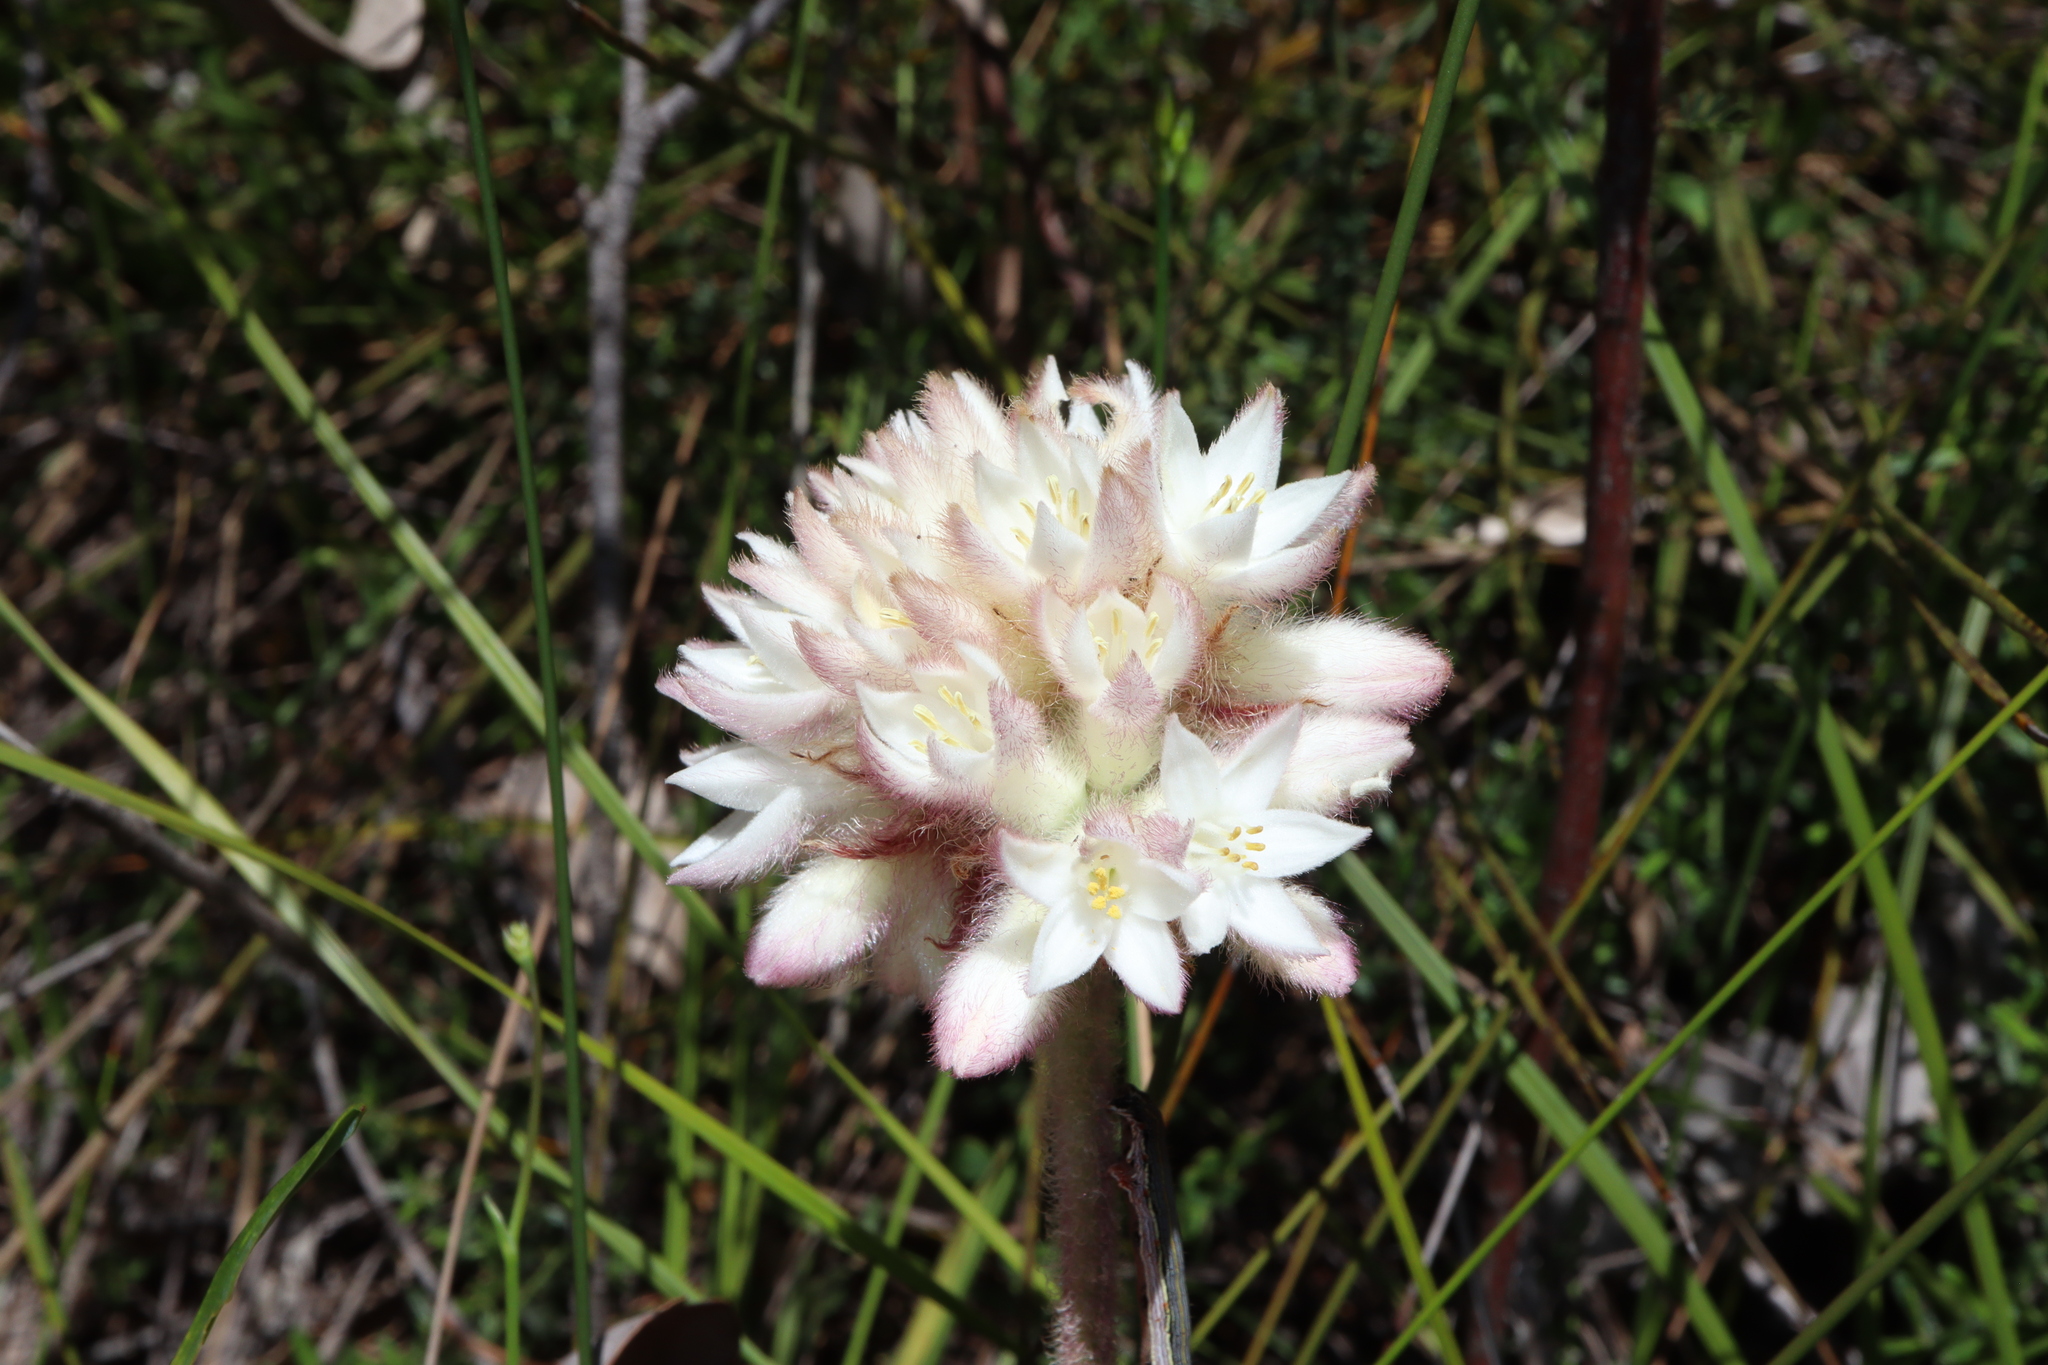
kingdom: Plantae
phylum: Tracheophyta
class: Liliopsida
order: Commelinales
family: Haemodoraceae
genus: Conostylis
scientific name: Conostylis setosa
